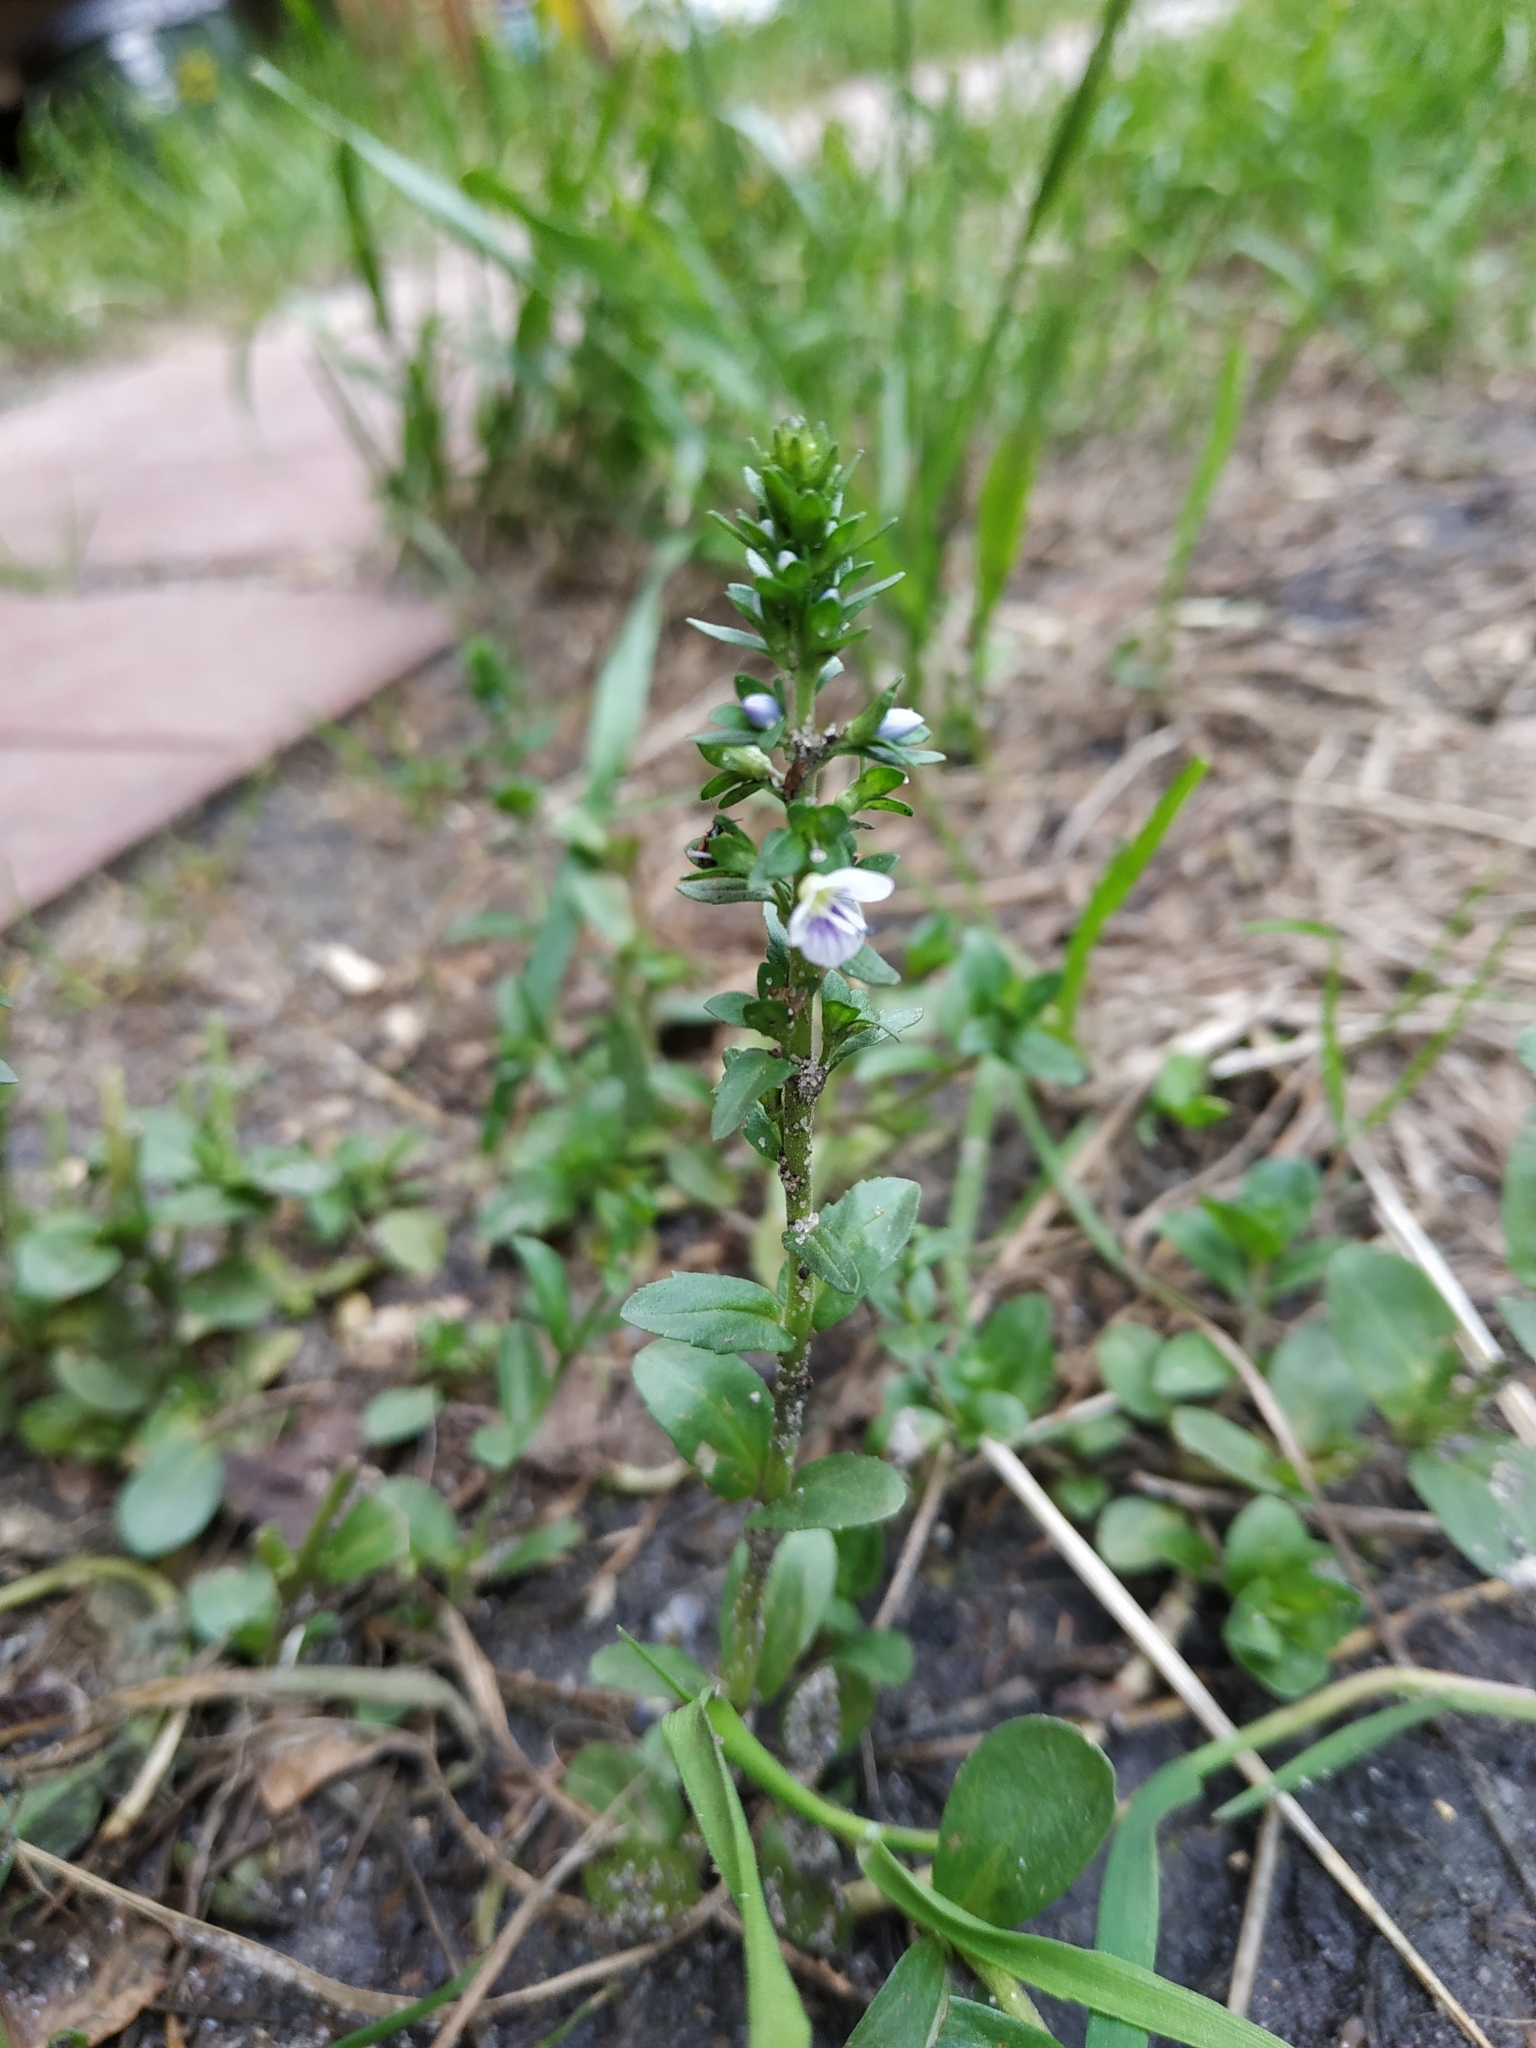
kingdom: Plantae
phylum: Tracheophyta
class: Magnoliopsida
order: Lamiales
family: Plantaginaceae
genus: Veronica
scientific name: Veronica serpyllifolia
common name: Thyme-leaved speedwell
